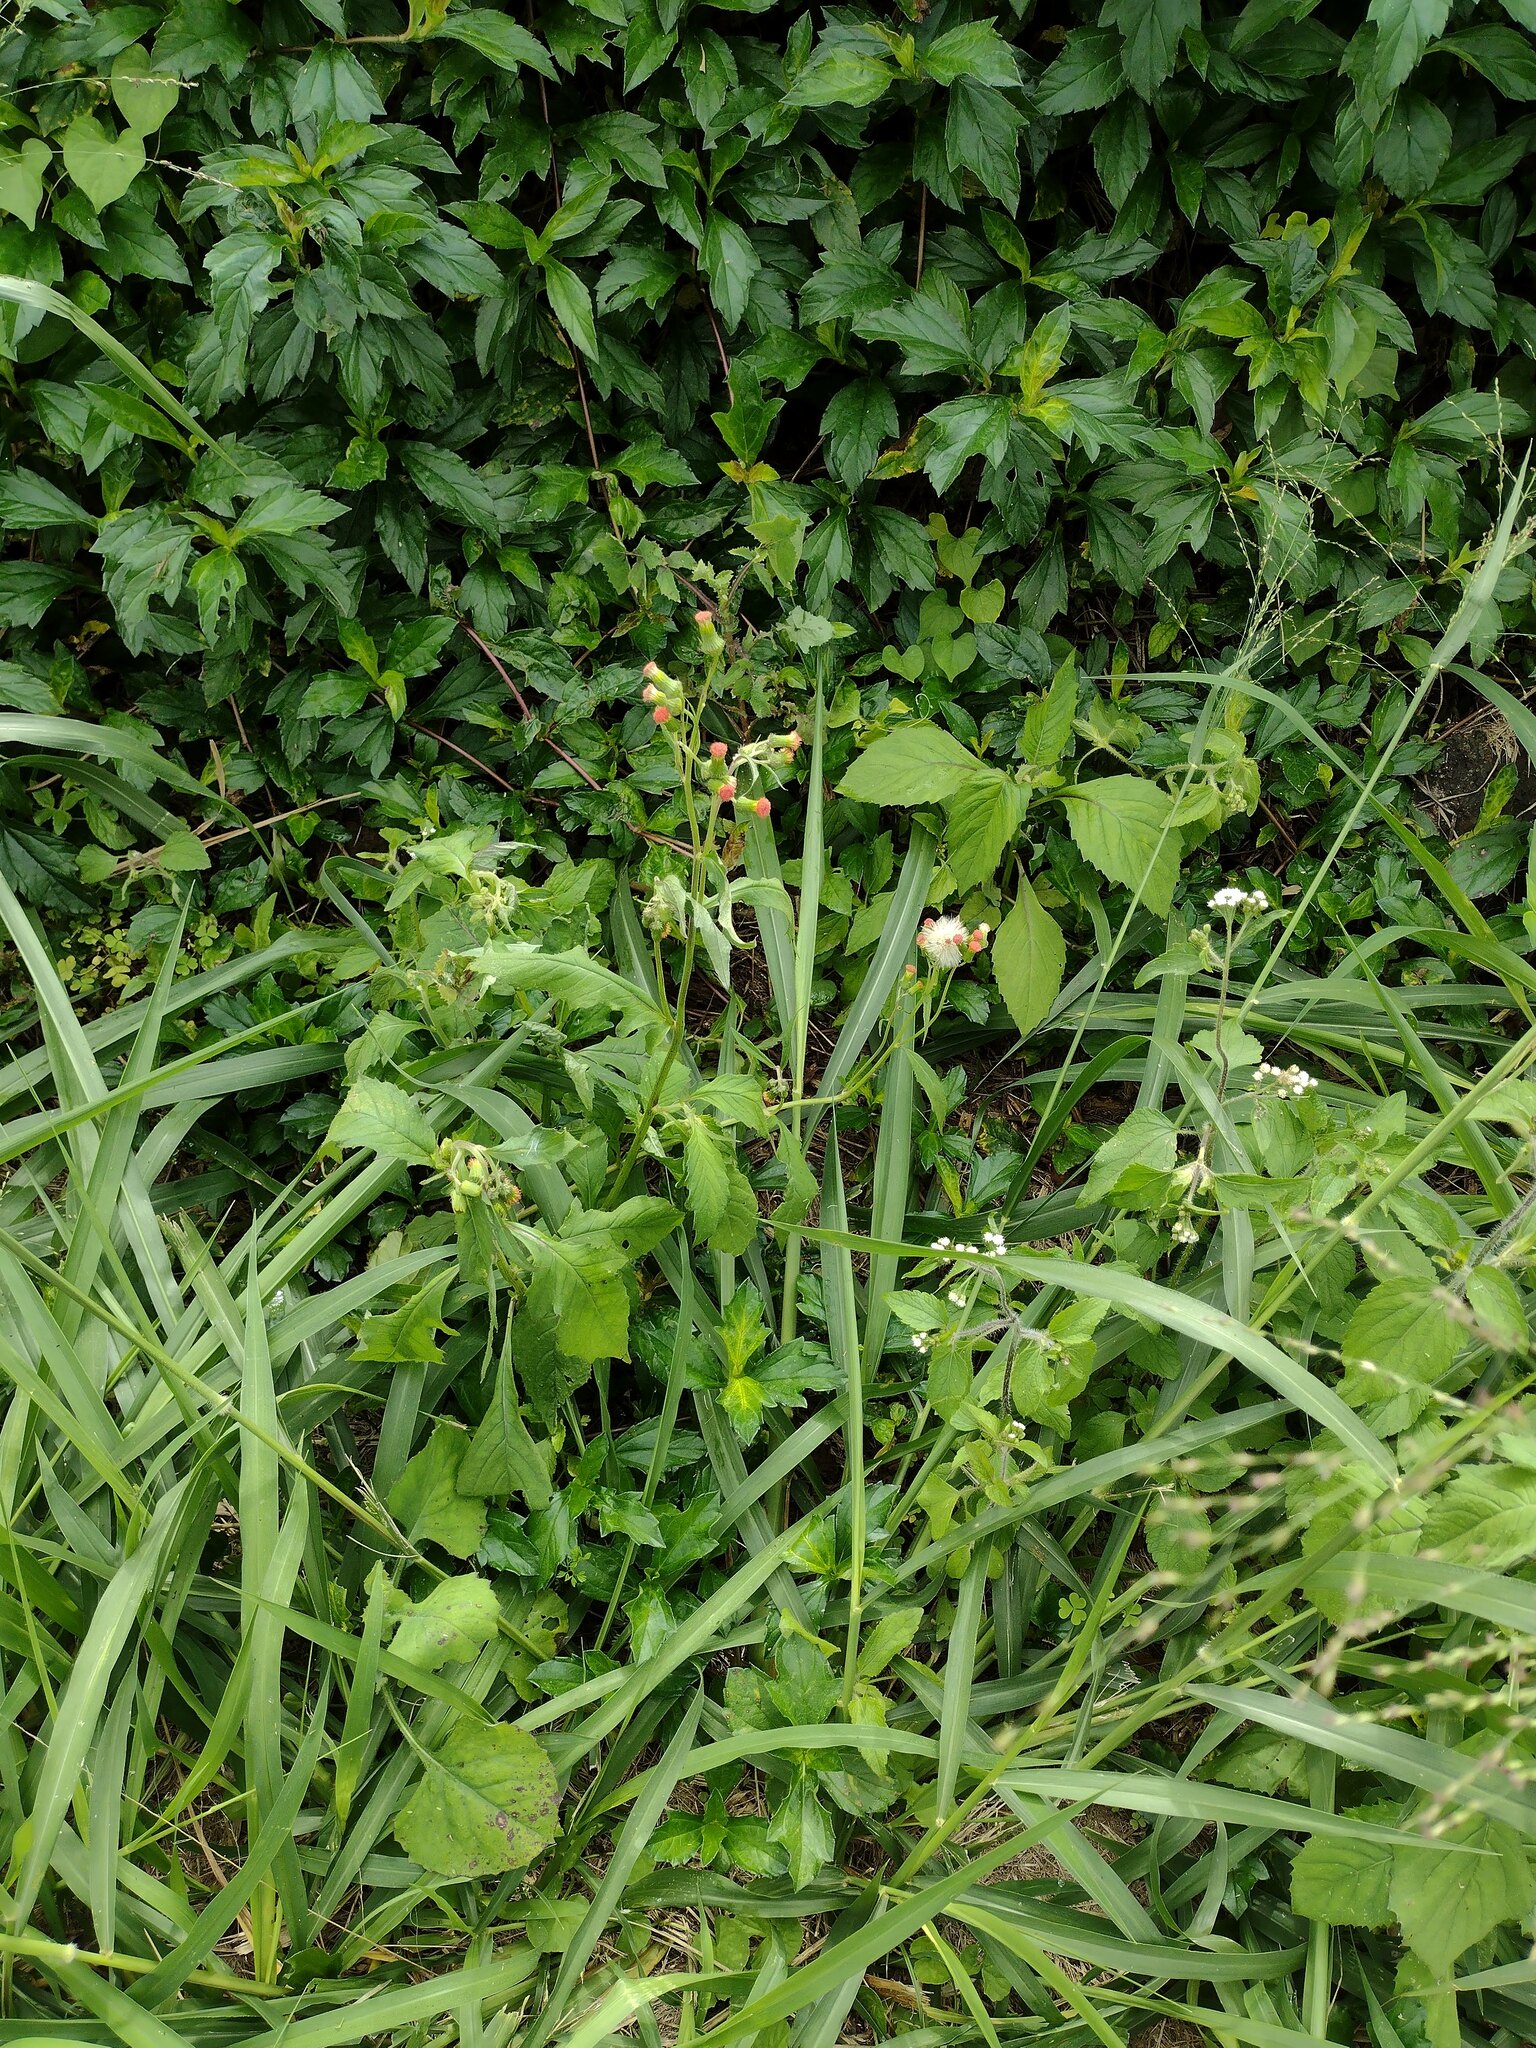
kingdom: Plantae
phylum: Tracheophyta
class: Magnoliopsida
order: Asterales
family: Asteraceae
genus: Crassocephalum
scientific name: Crassocephalum crepidioides
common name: Redflower ragleaf
